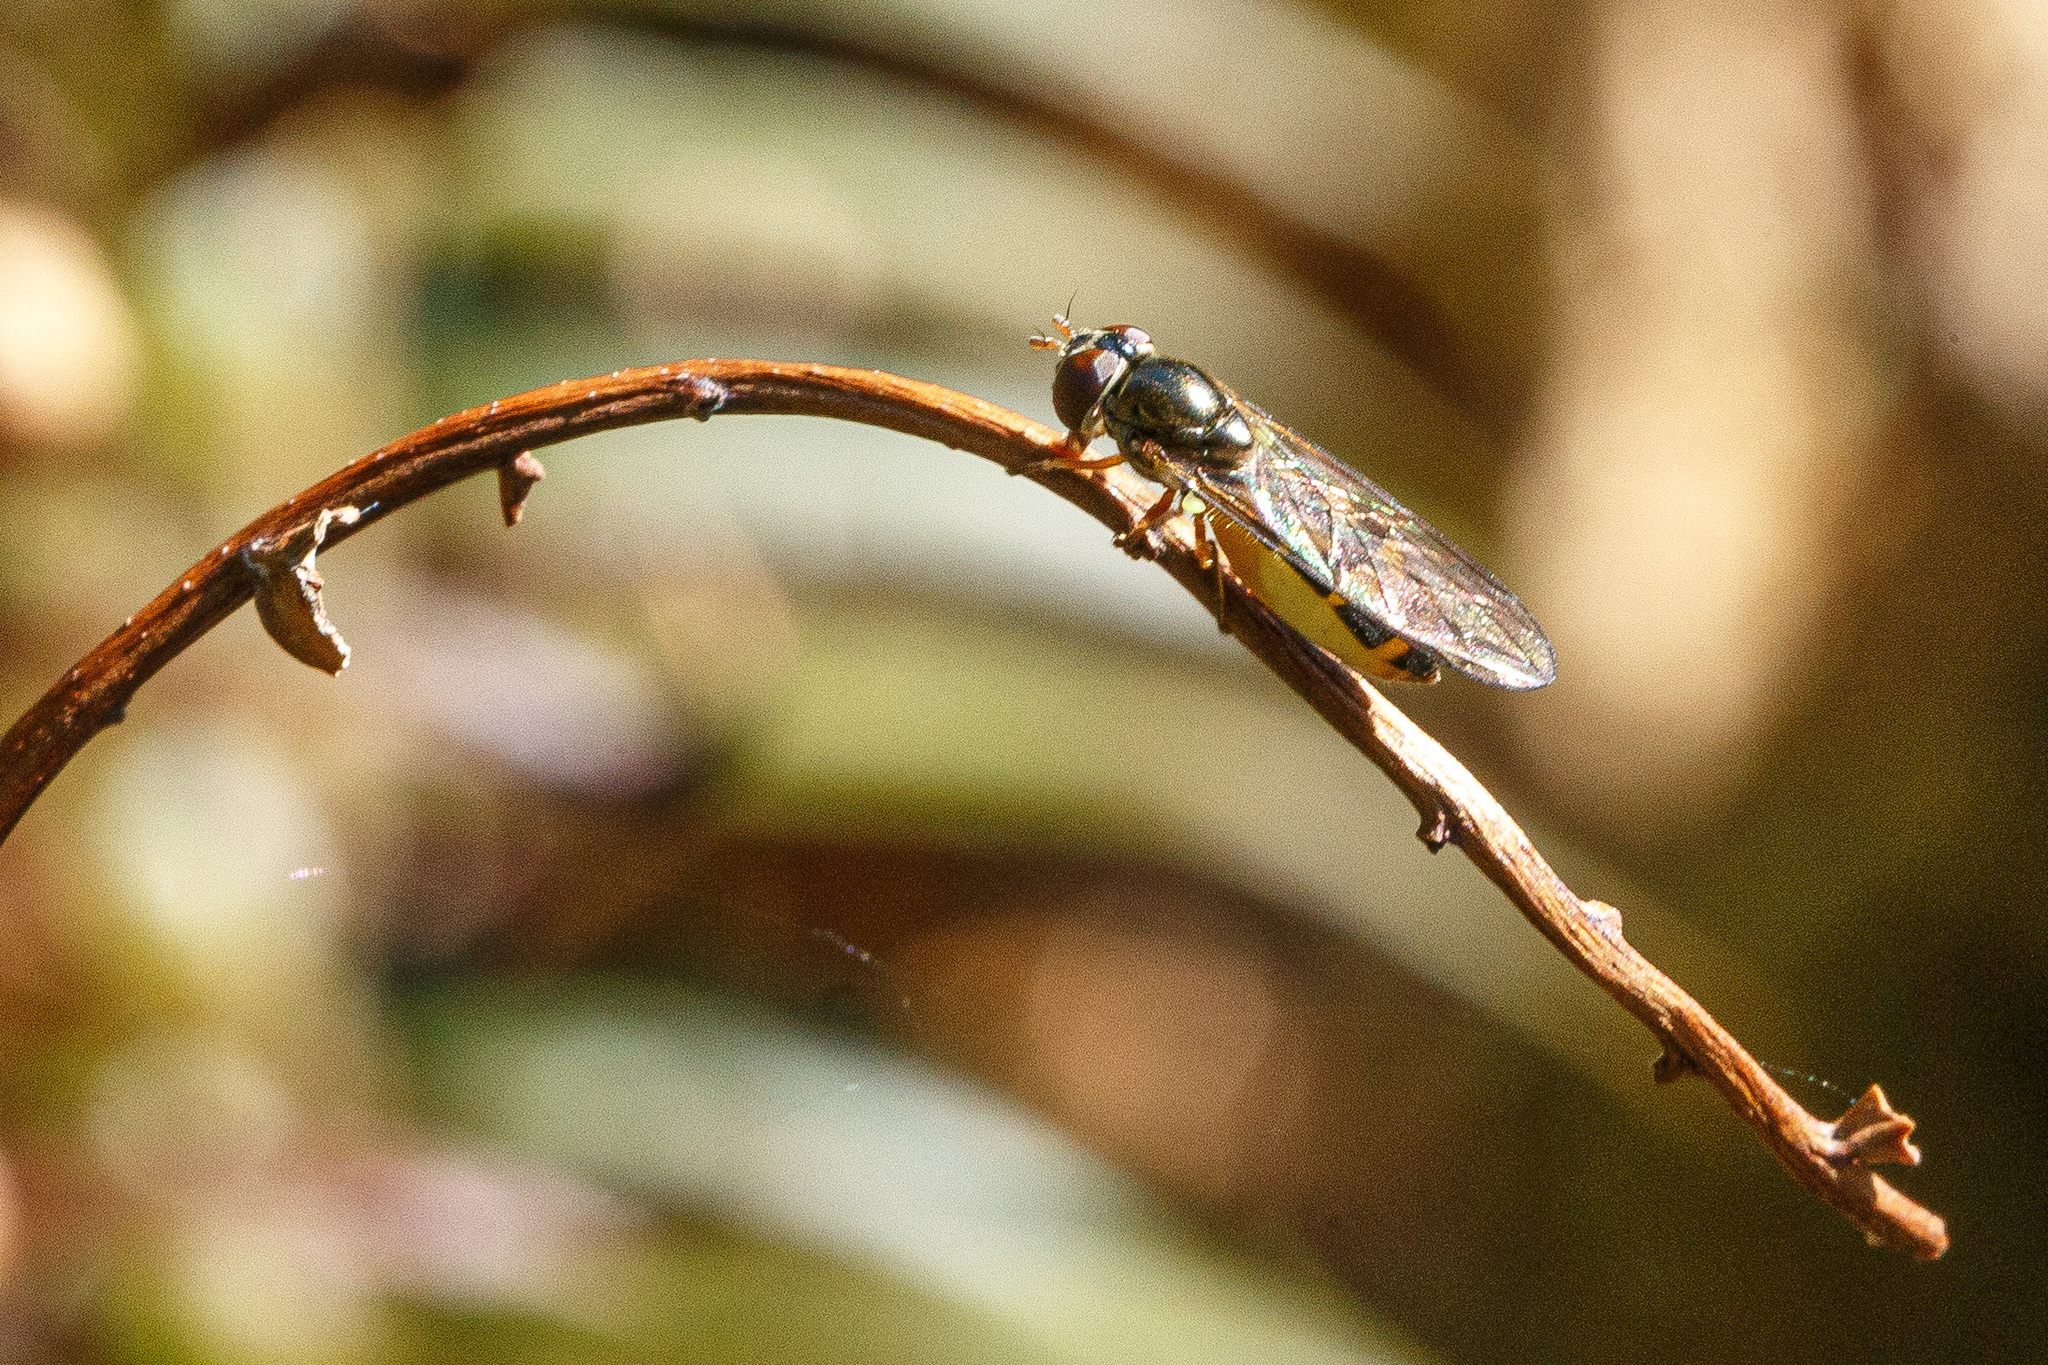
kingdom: Animalia
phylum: Arthropoda
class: Insecta
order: Diptera
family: Syrphidae
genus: Melanostoma
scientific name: Melanostoma mellina
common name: Hover fly
